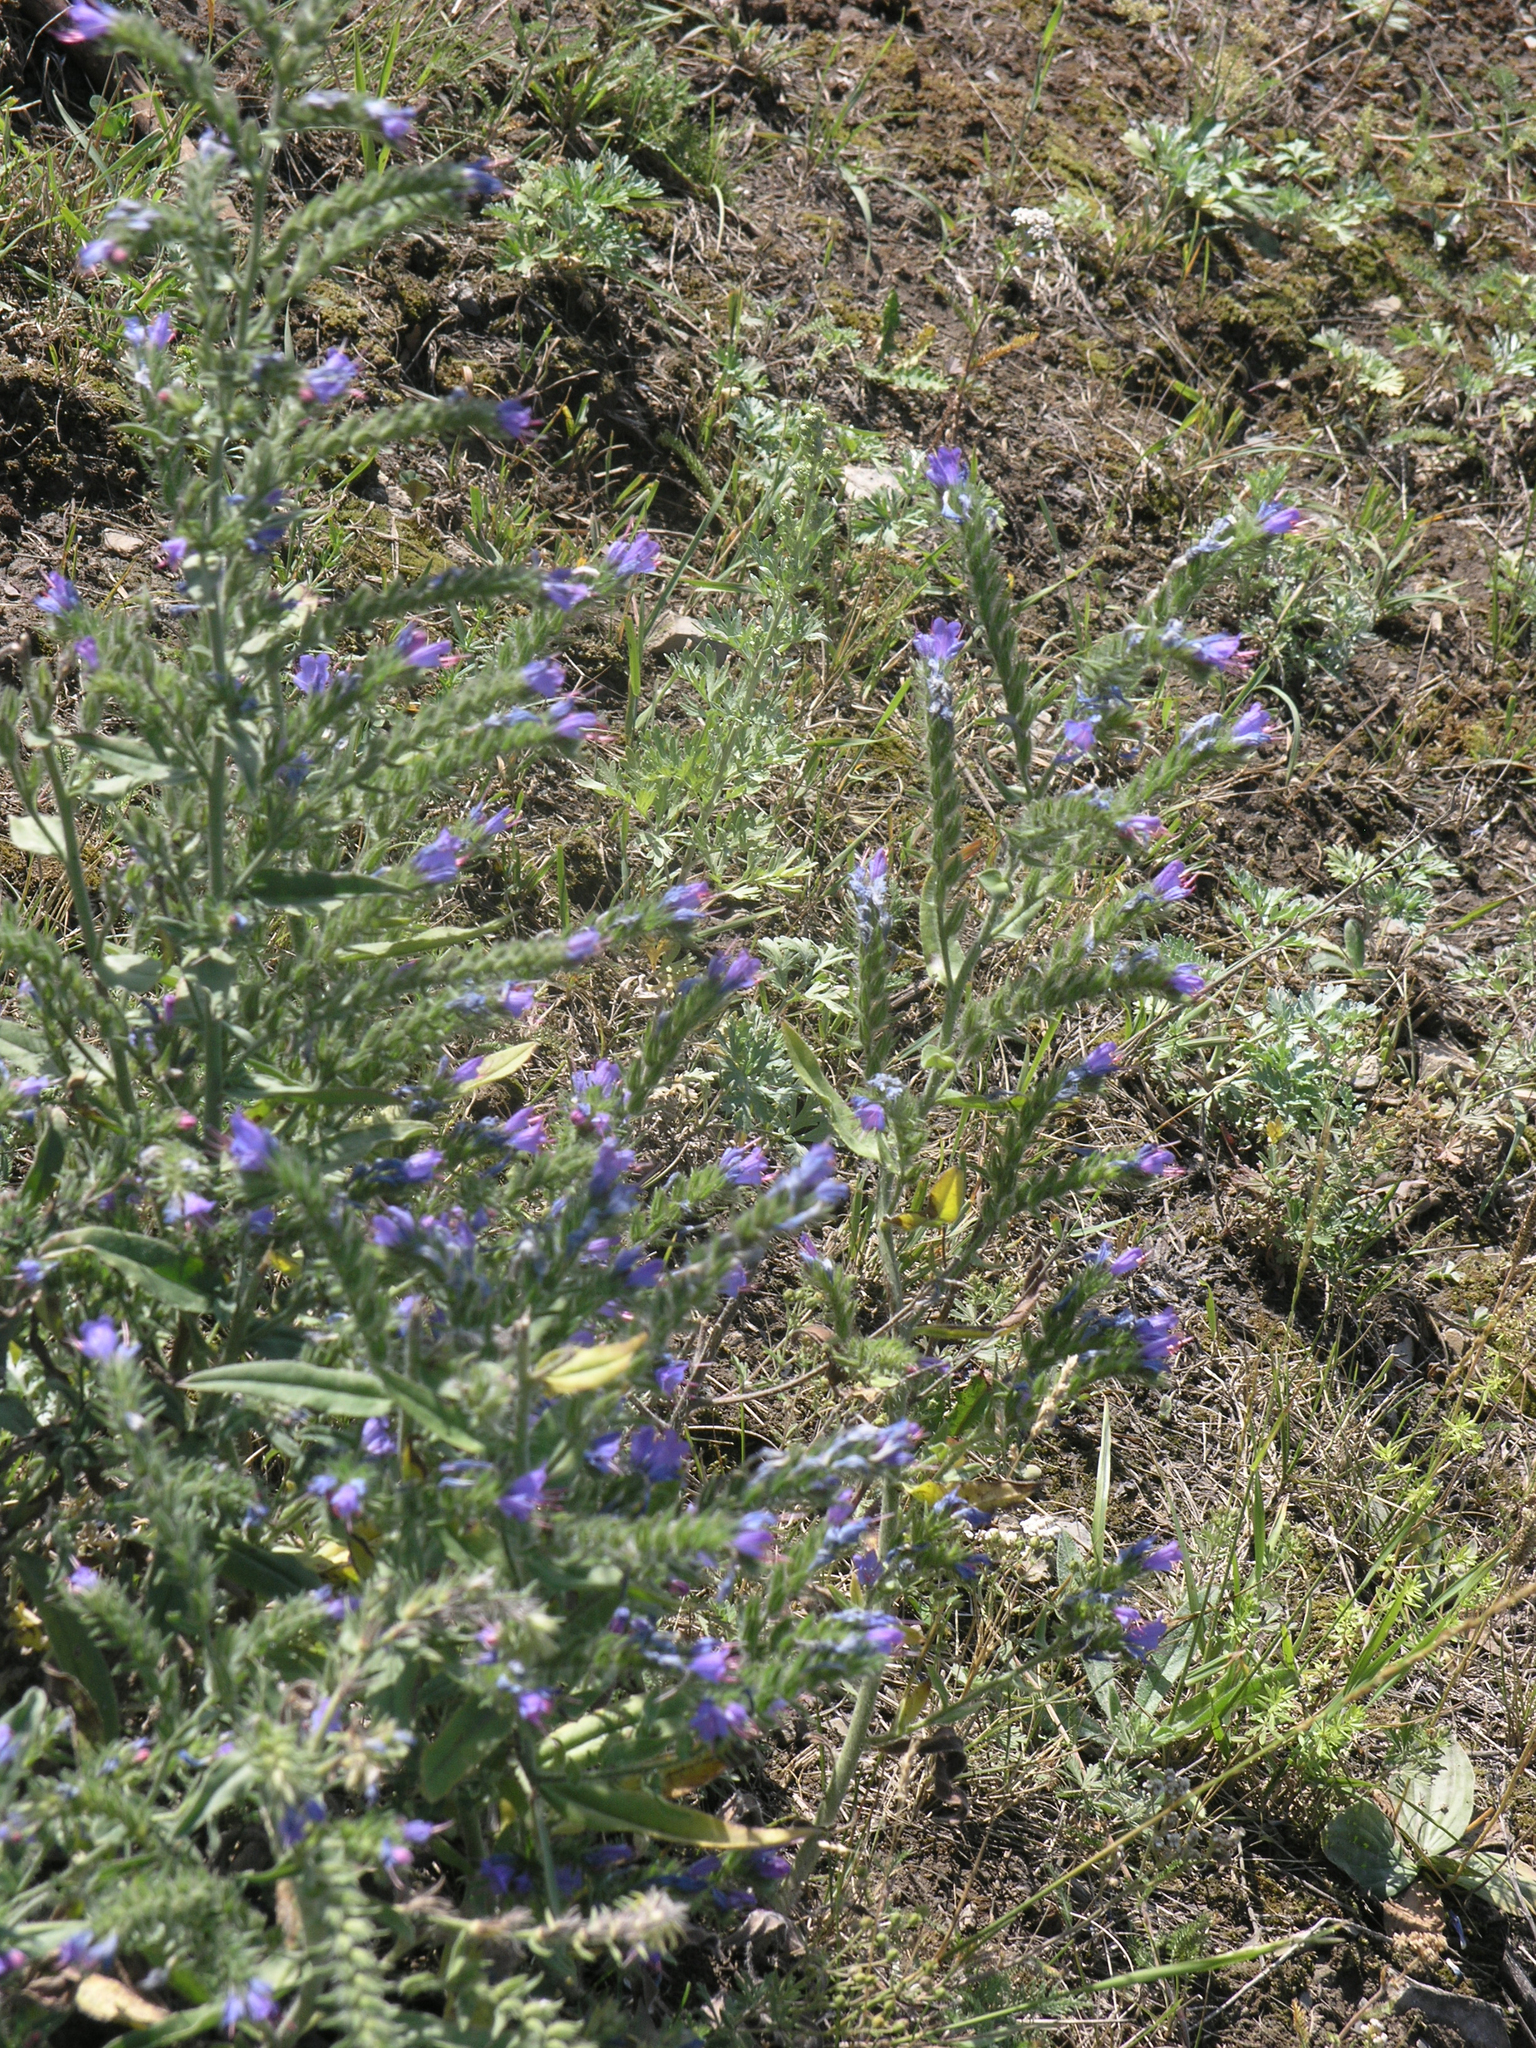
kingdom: Plantae
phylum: Tracheophyta
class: Magnoliopsida
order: Boraginales
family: Boraginaceae
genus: Echium
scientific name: Echium vulgare
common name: Common viper's bugloss
